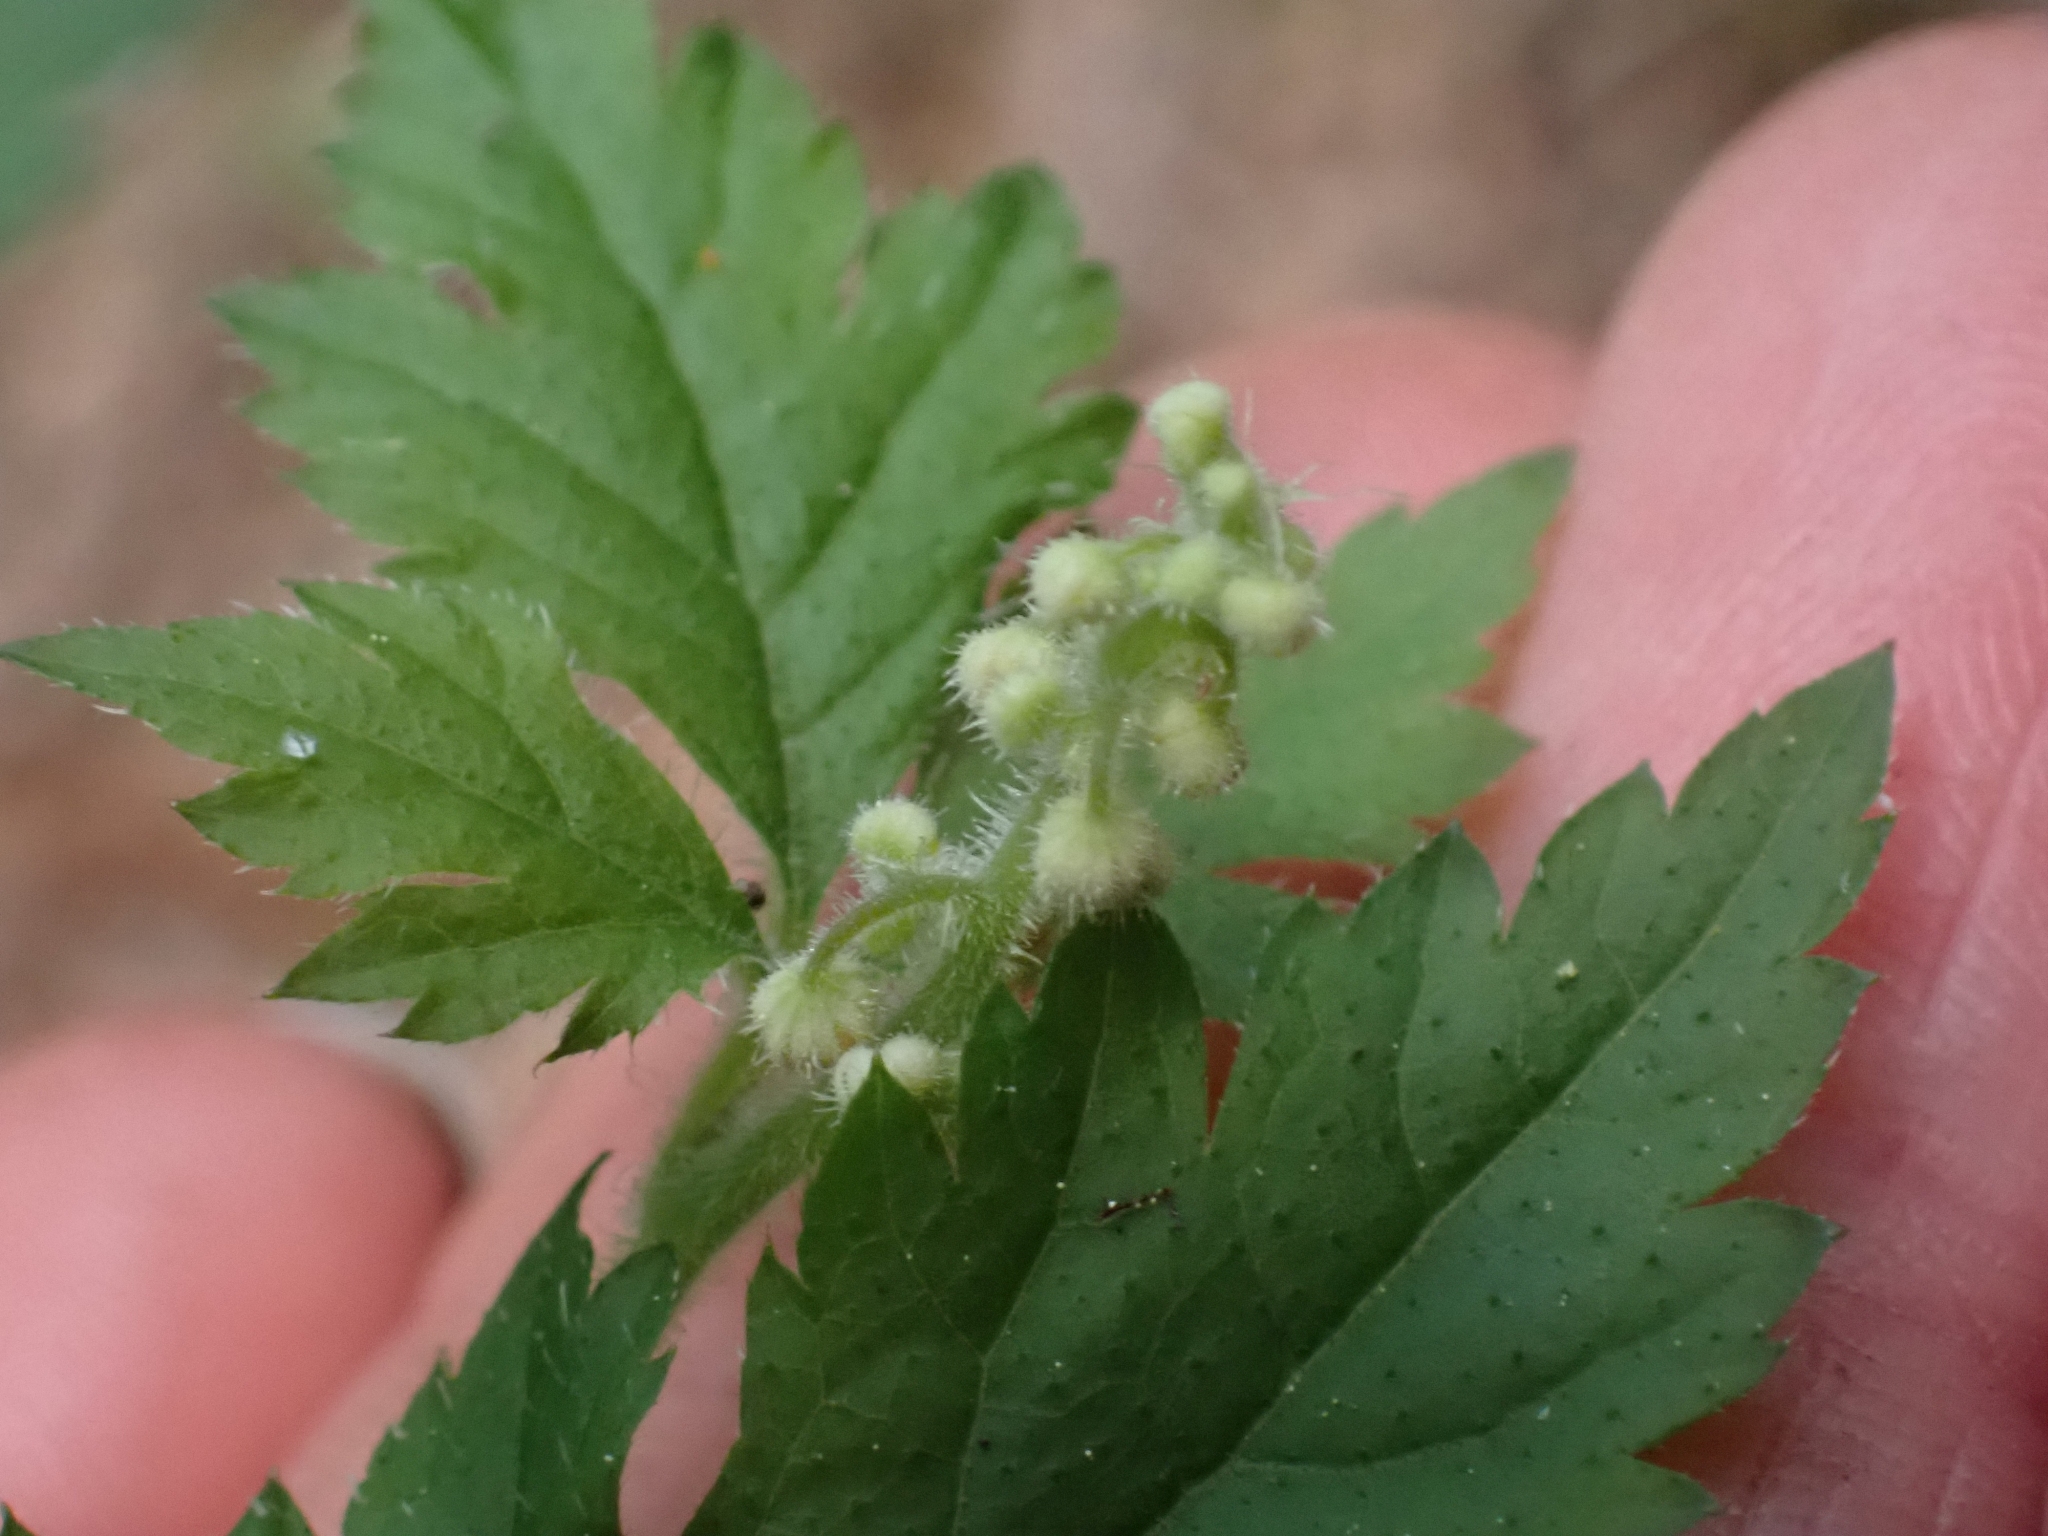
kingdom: Plantae
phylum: Tracheophyta
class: Magnoliopsida
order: Saxifragales
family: Saxifragaceae
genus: Tiarella
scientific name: Tiarella trifoliata
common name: Sugar-scoop
